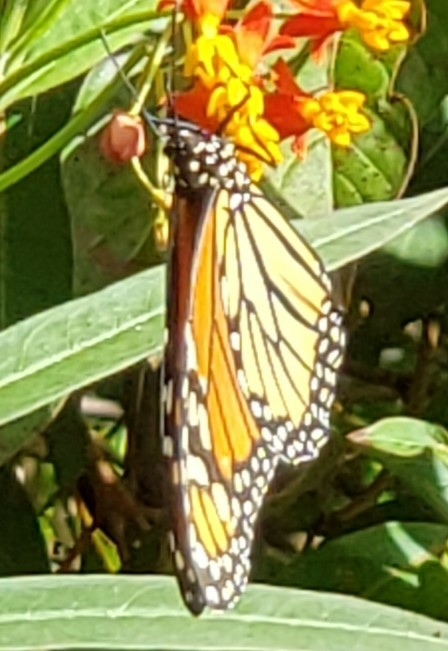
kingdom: Animalia
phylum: Arthropoda
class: Insecta
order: Lepidoptera
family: Nymphalidae
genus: Danaus
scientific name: Danaus plexippus
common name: Monarch
